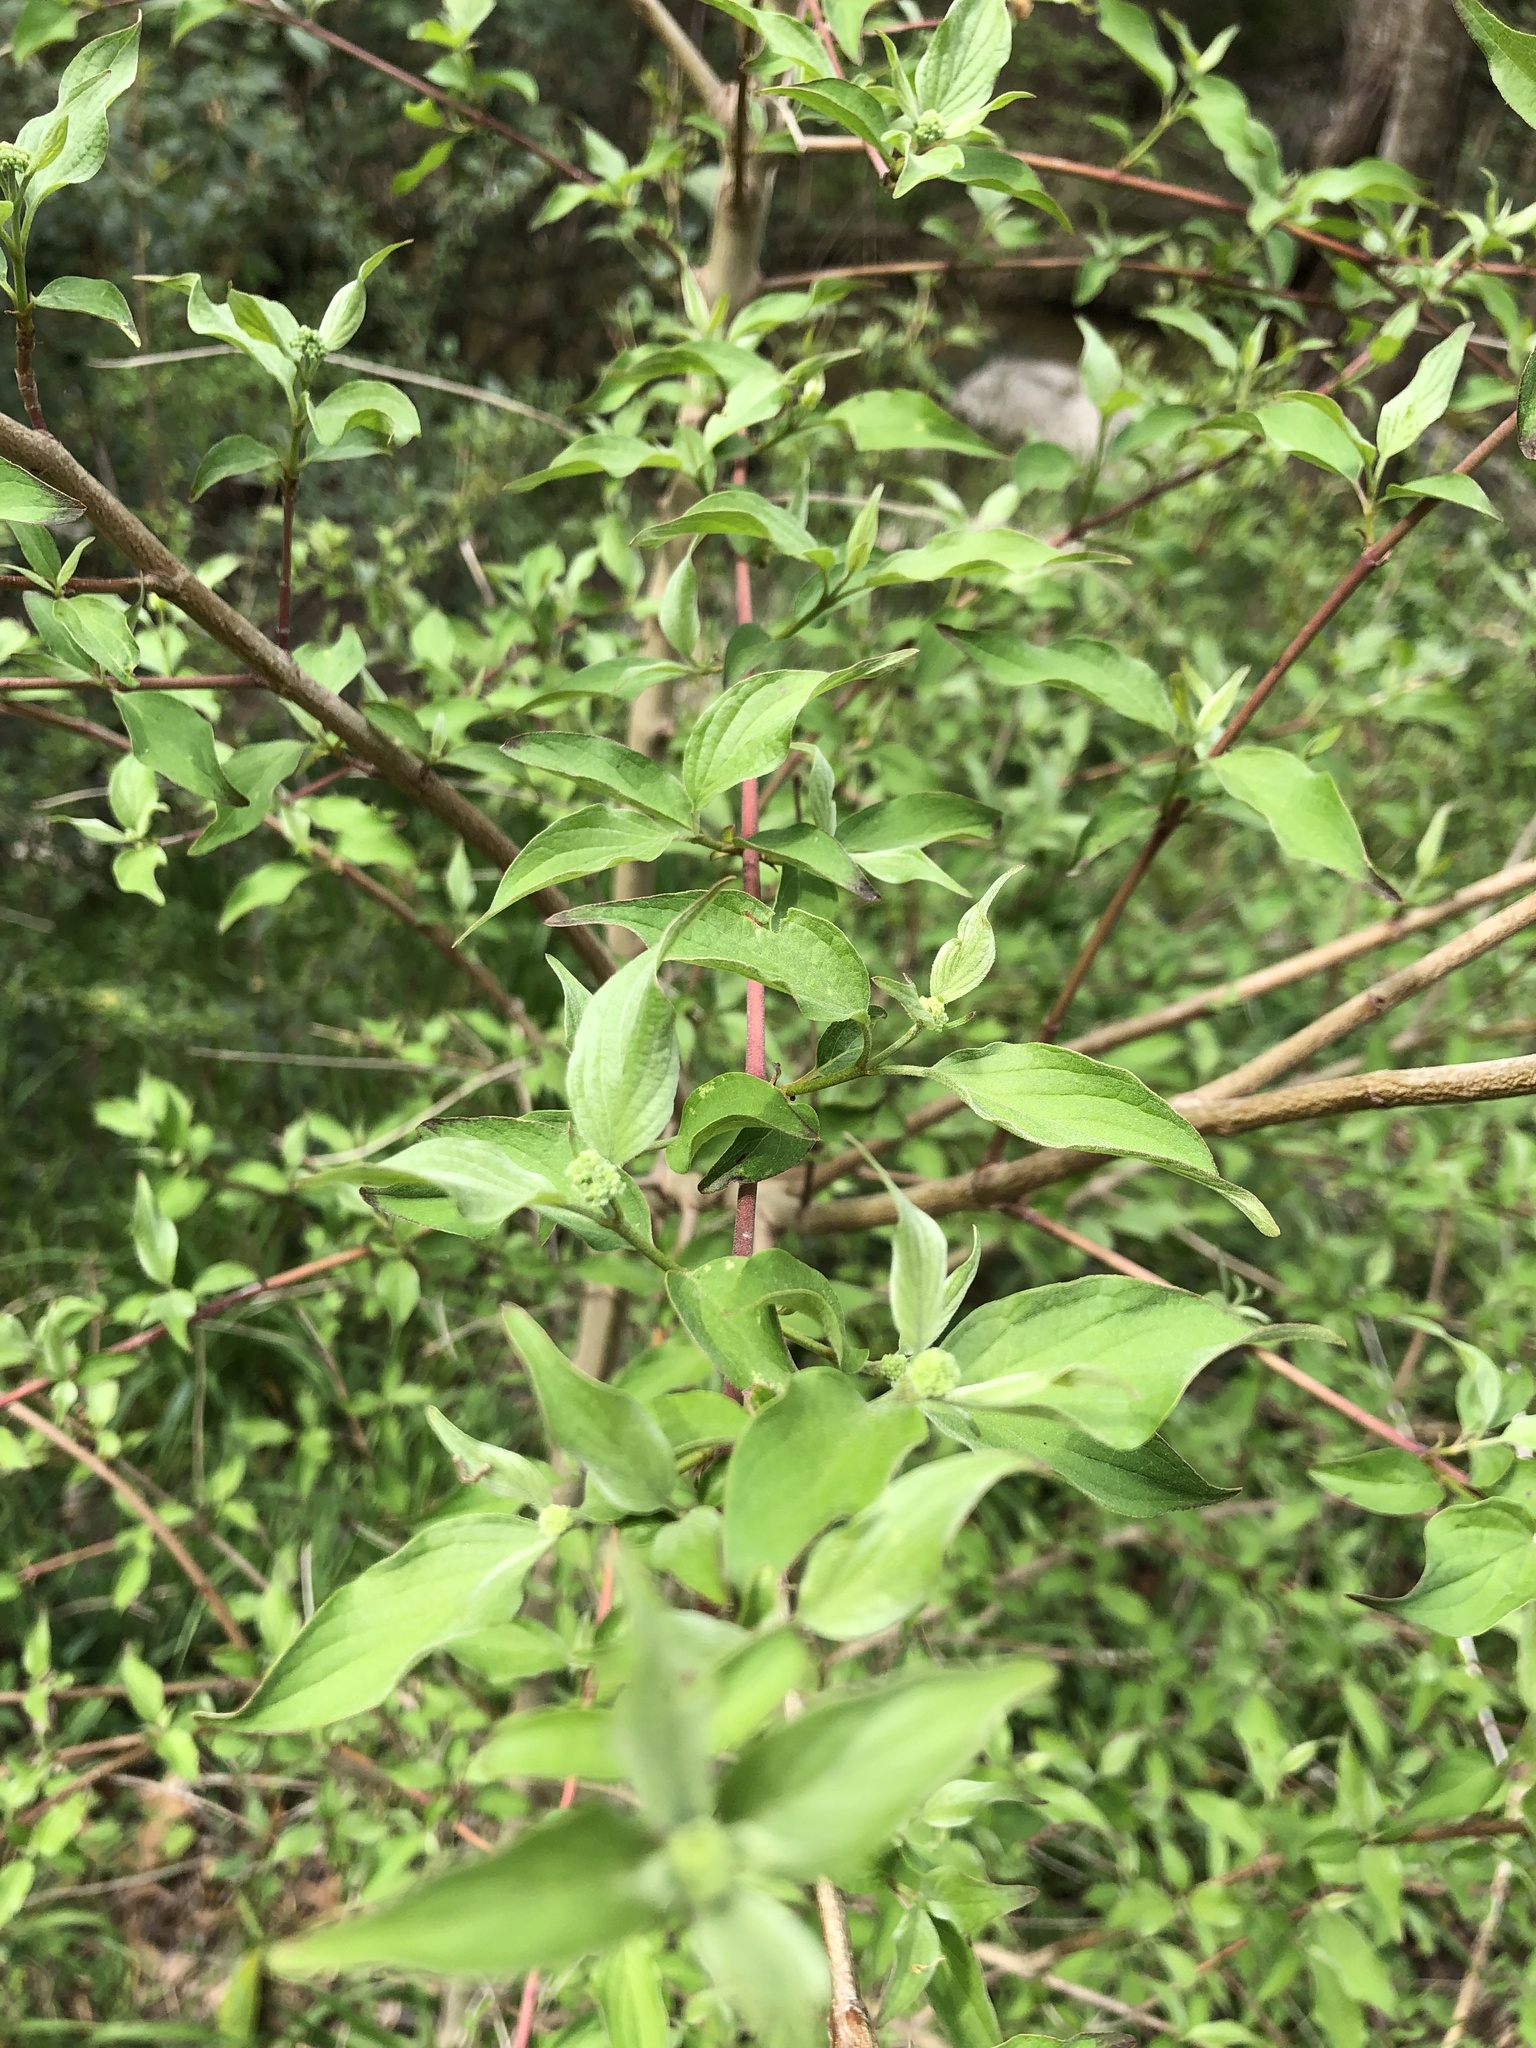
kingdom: Plantae
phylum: Tracheophyta
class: Magnoliopsida
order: Cornales
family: Cornaceae
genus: Cornus
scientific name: Cornus drummondii
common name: Rough-leaf dogwood
